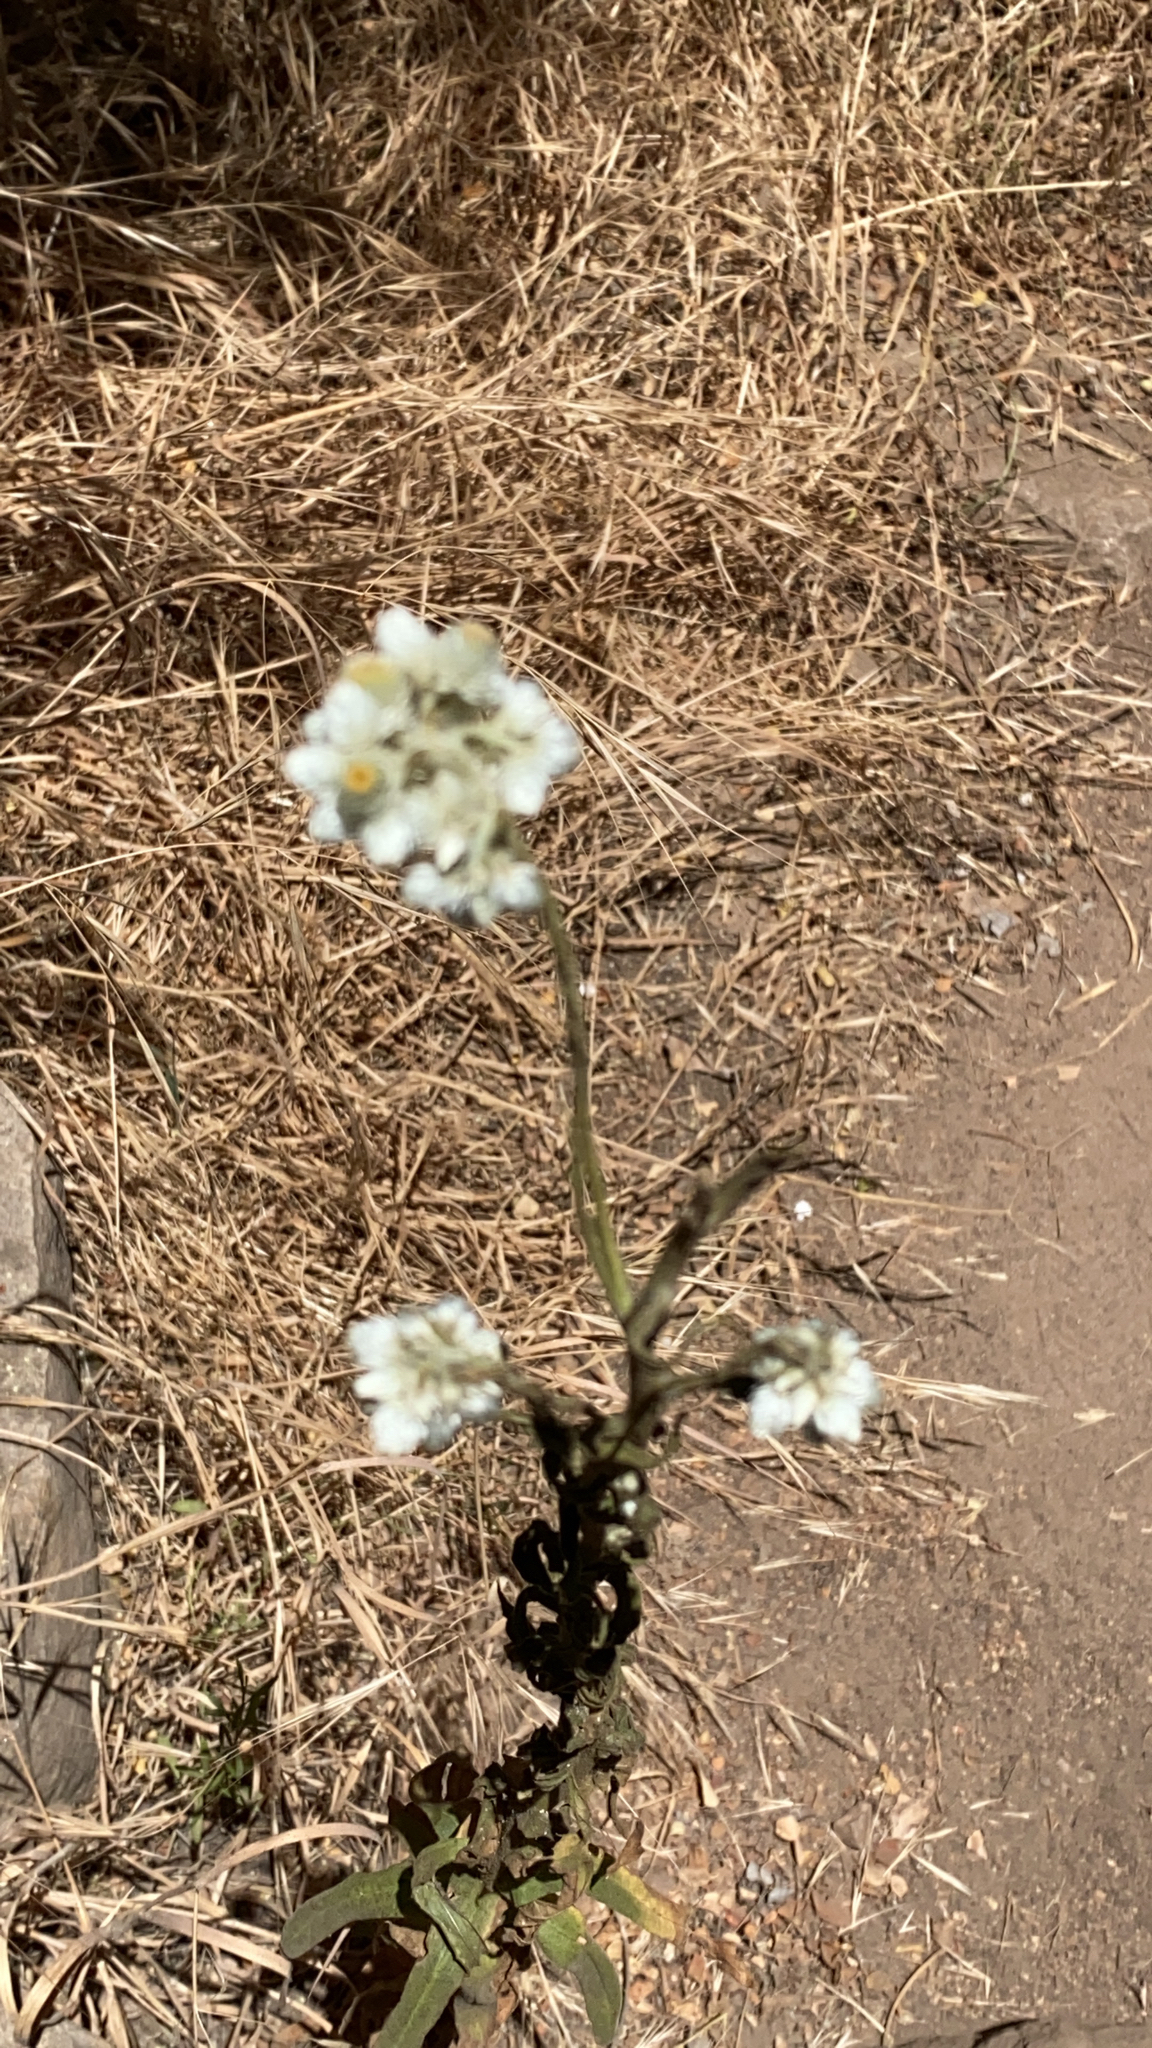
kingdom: Plantae
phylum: Tracheophyta
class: Magnoliopsida
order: Brassicales
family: Brassicaceae
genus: Berteroa
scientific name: Berteroa incana
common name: Hoary alison
